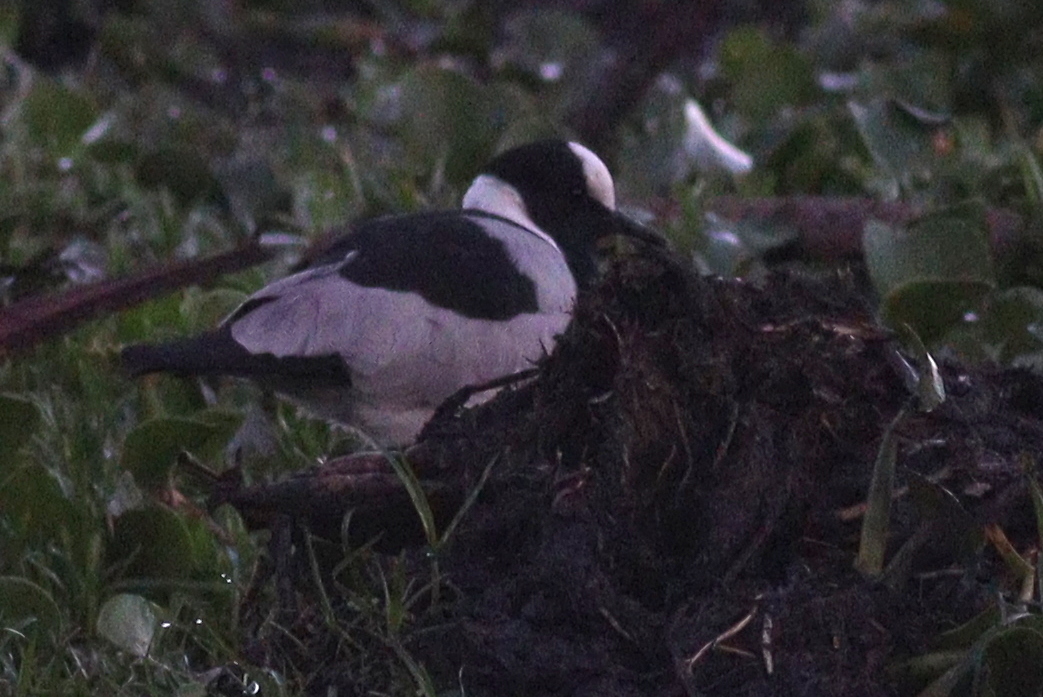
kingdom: Animalia
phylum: Chordata
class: Aves
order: Charadriiformes
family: Charadriidae
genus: Vanellus
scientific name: Vanellus armatus
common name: Blacksmith lapwing
